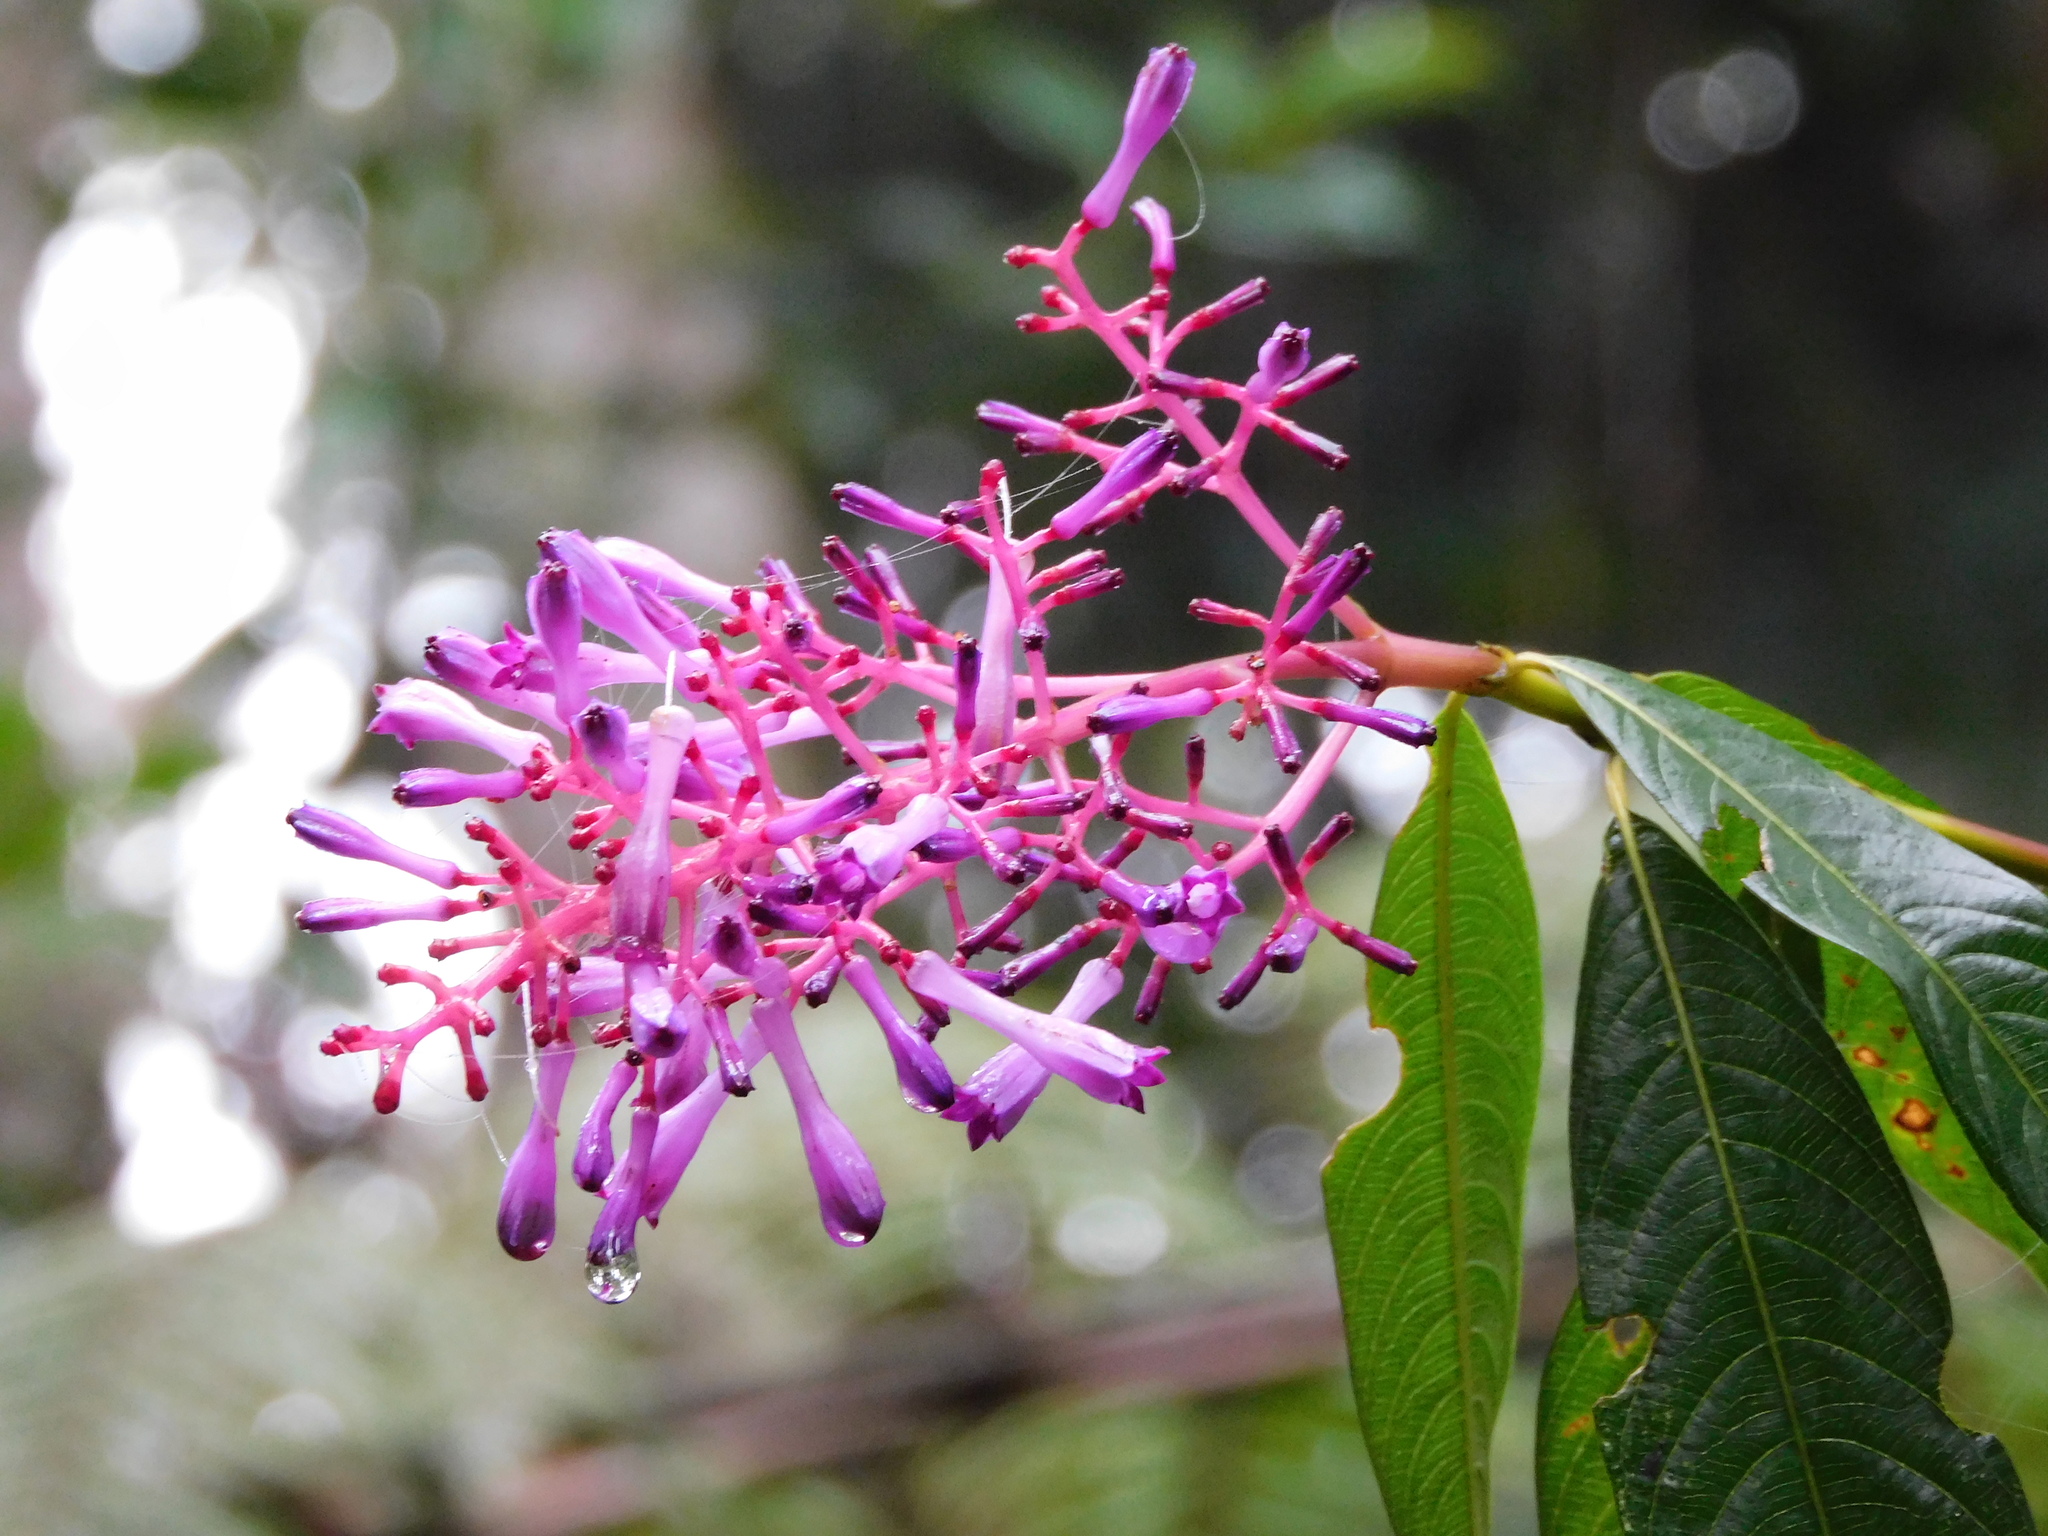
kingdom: Plantae
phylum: Tracheophyta
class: Magnoliopsida
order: Gentianales
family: Rubiaceae
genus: Palicourea
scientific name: Palicourea angustifolia
